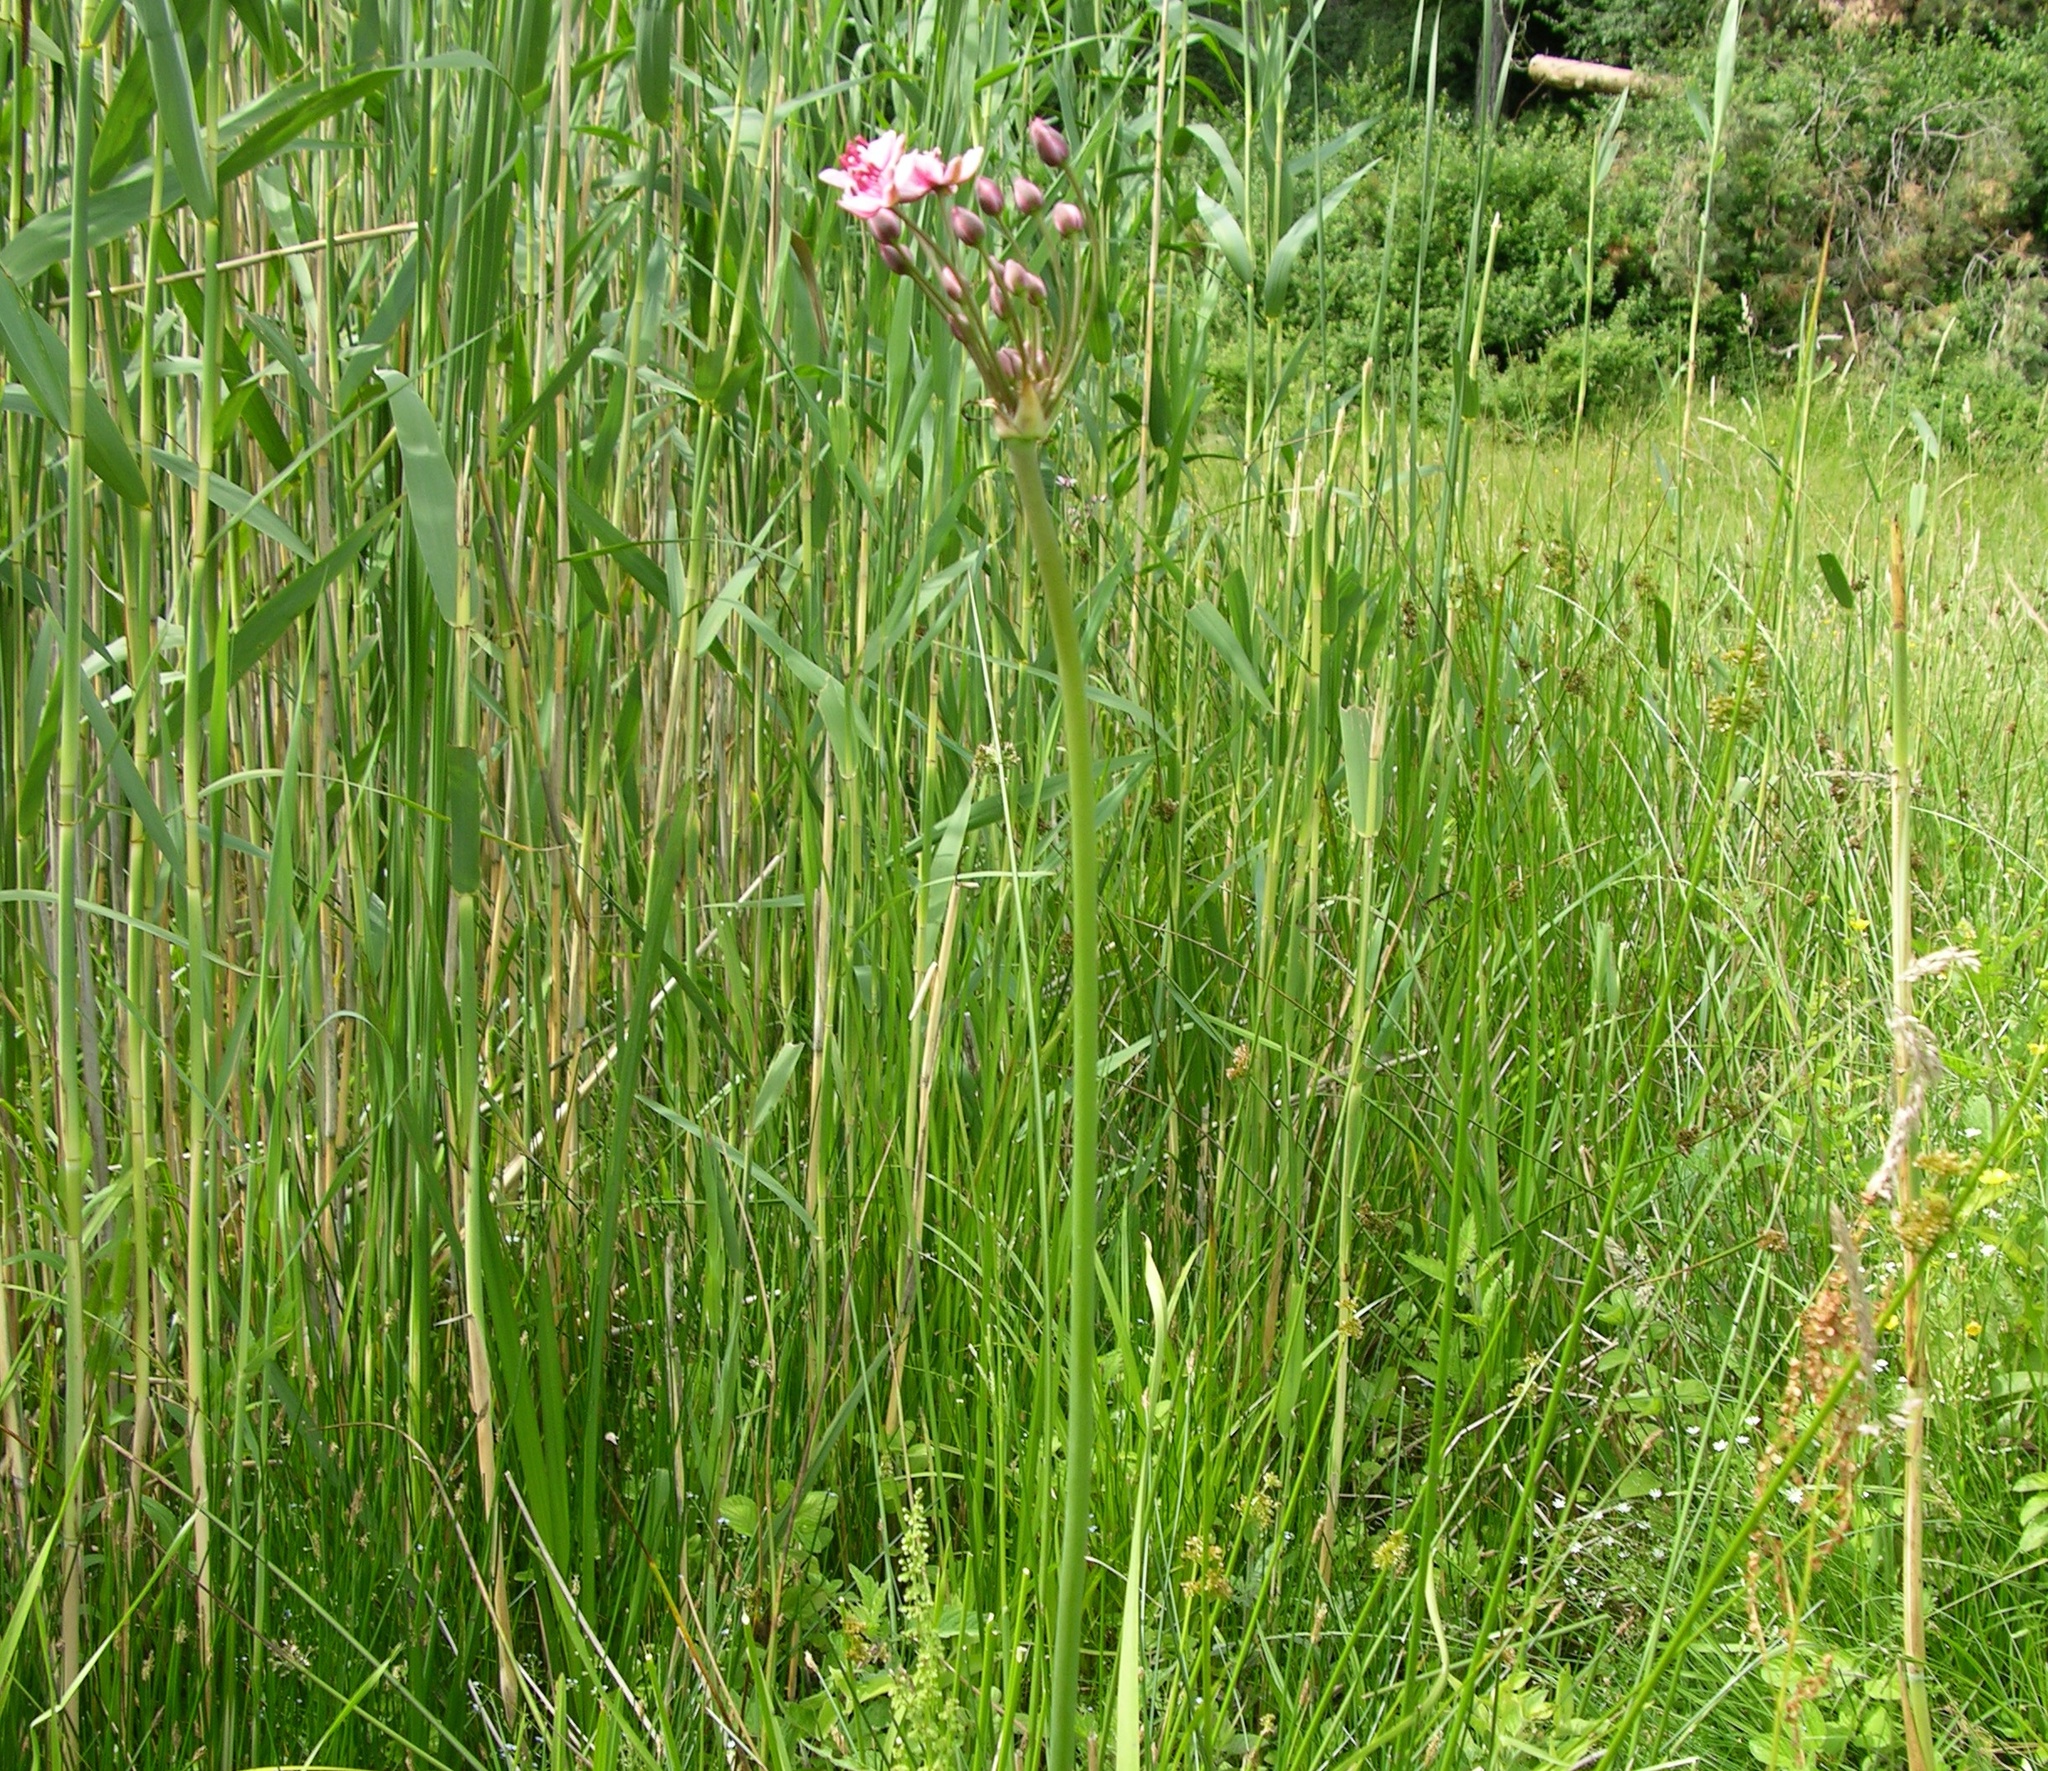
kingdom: Plantae
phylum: Tracheophyta
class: Liliopsida
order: Alismatales
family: Butomaceae
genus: Butomus
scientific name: Butomus umbellatus
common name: Flowering-rush
